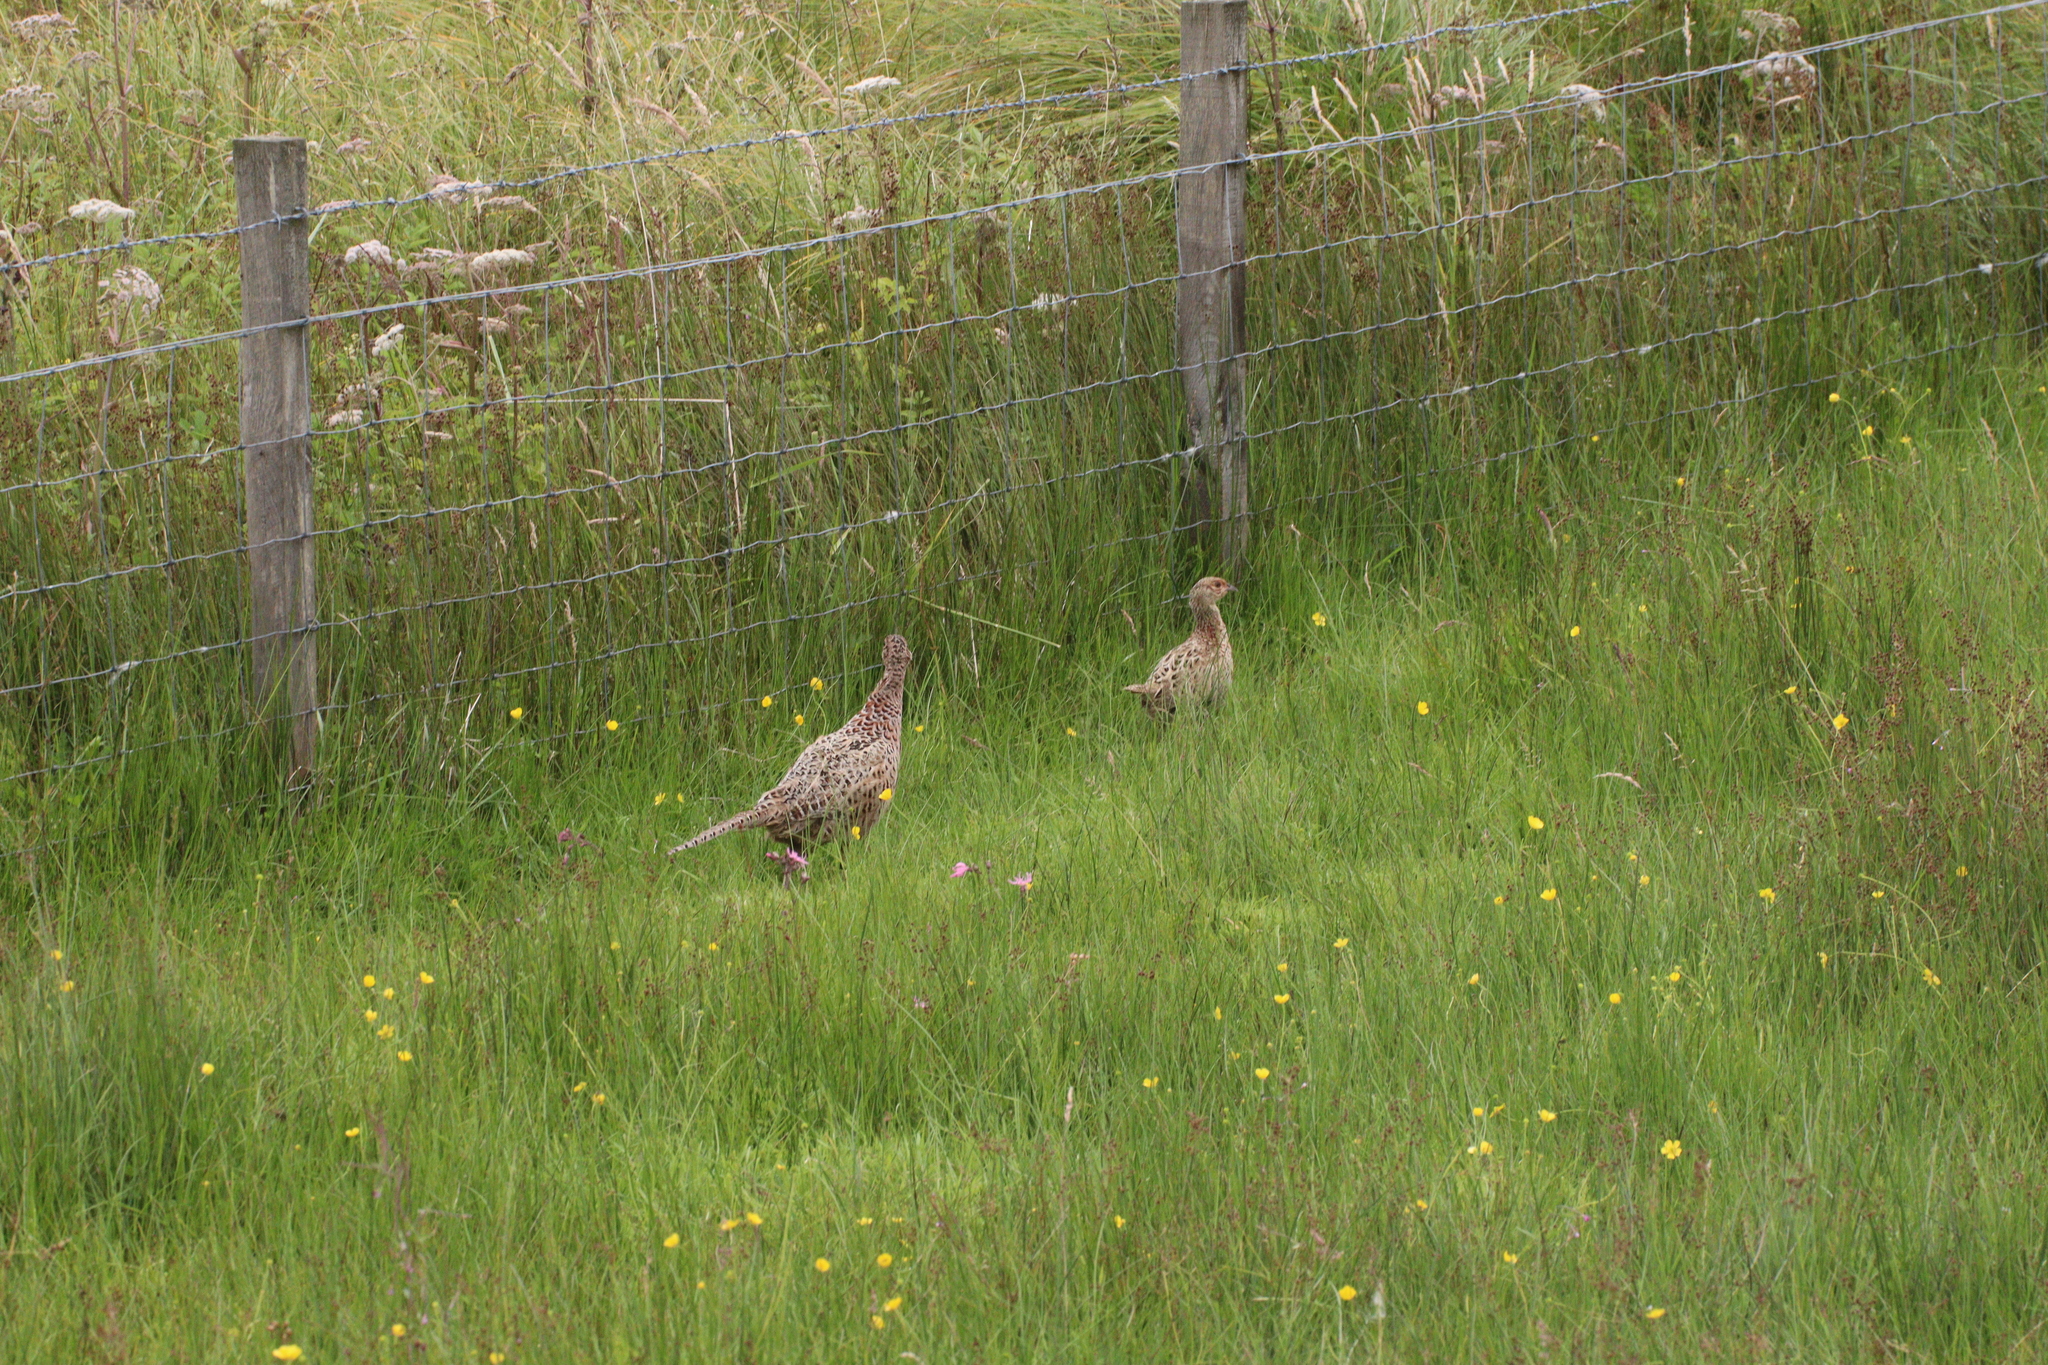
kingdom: Animalia
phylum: Chordata
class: Aves
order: Galliformes
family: Phasianidae
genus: Phasianus
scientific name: Phasianus colchicus
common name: Common pheasant
